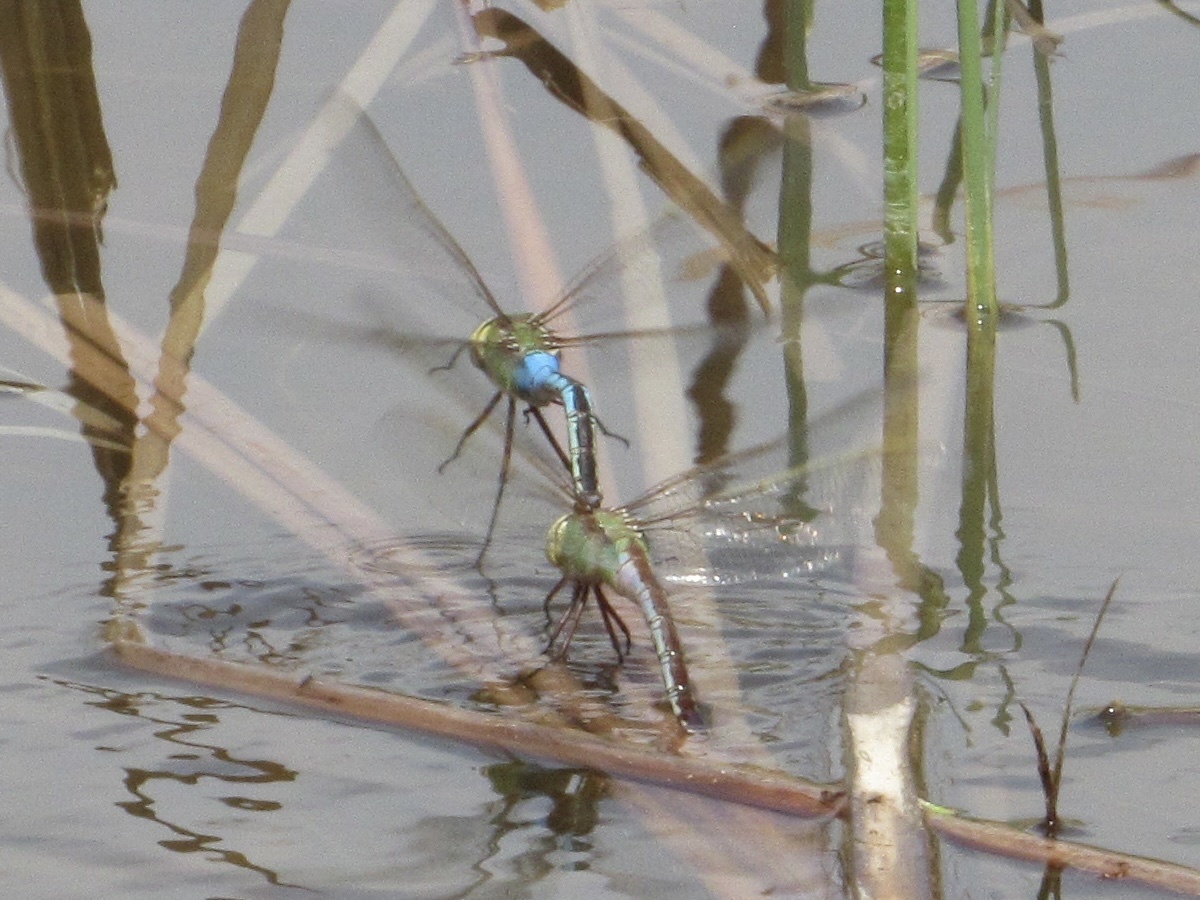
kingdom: Animalia
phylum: Arthropoda
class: Insecta
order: Odonata
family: Aeshnidae
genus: Anax
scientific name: Anax junius
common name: Common green darner
